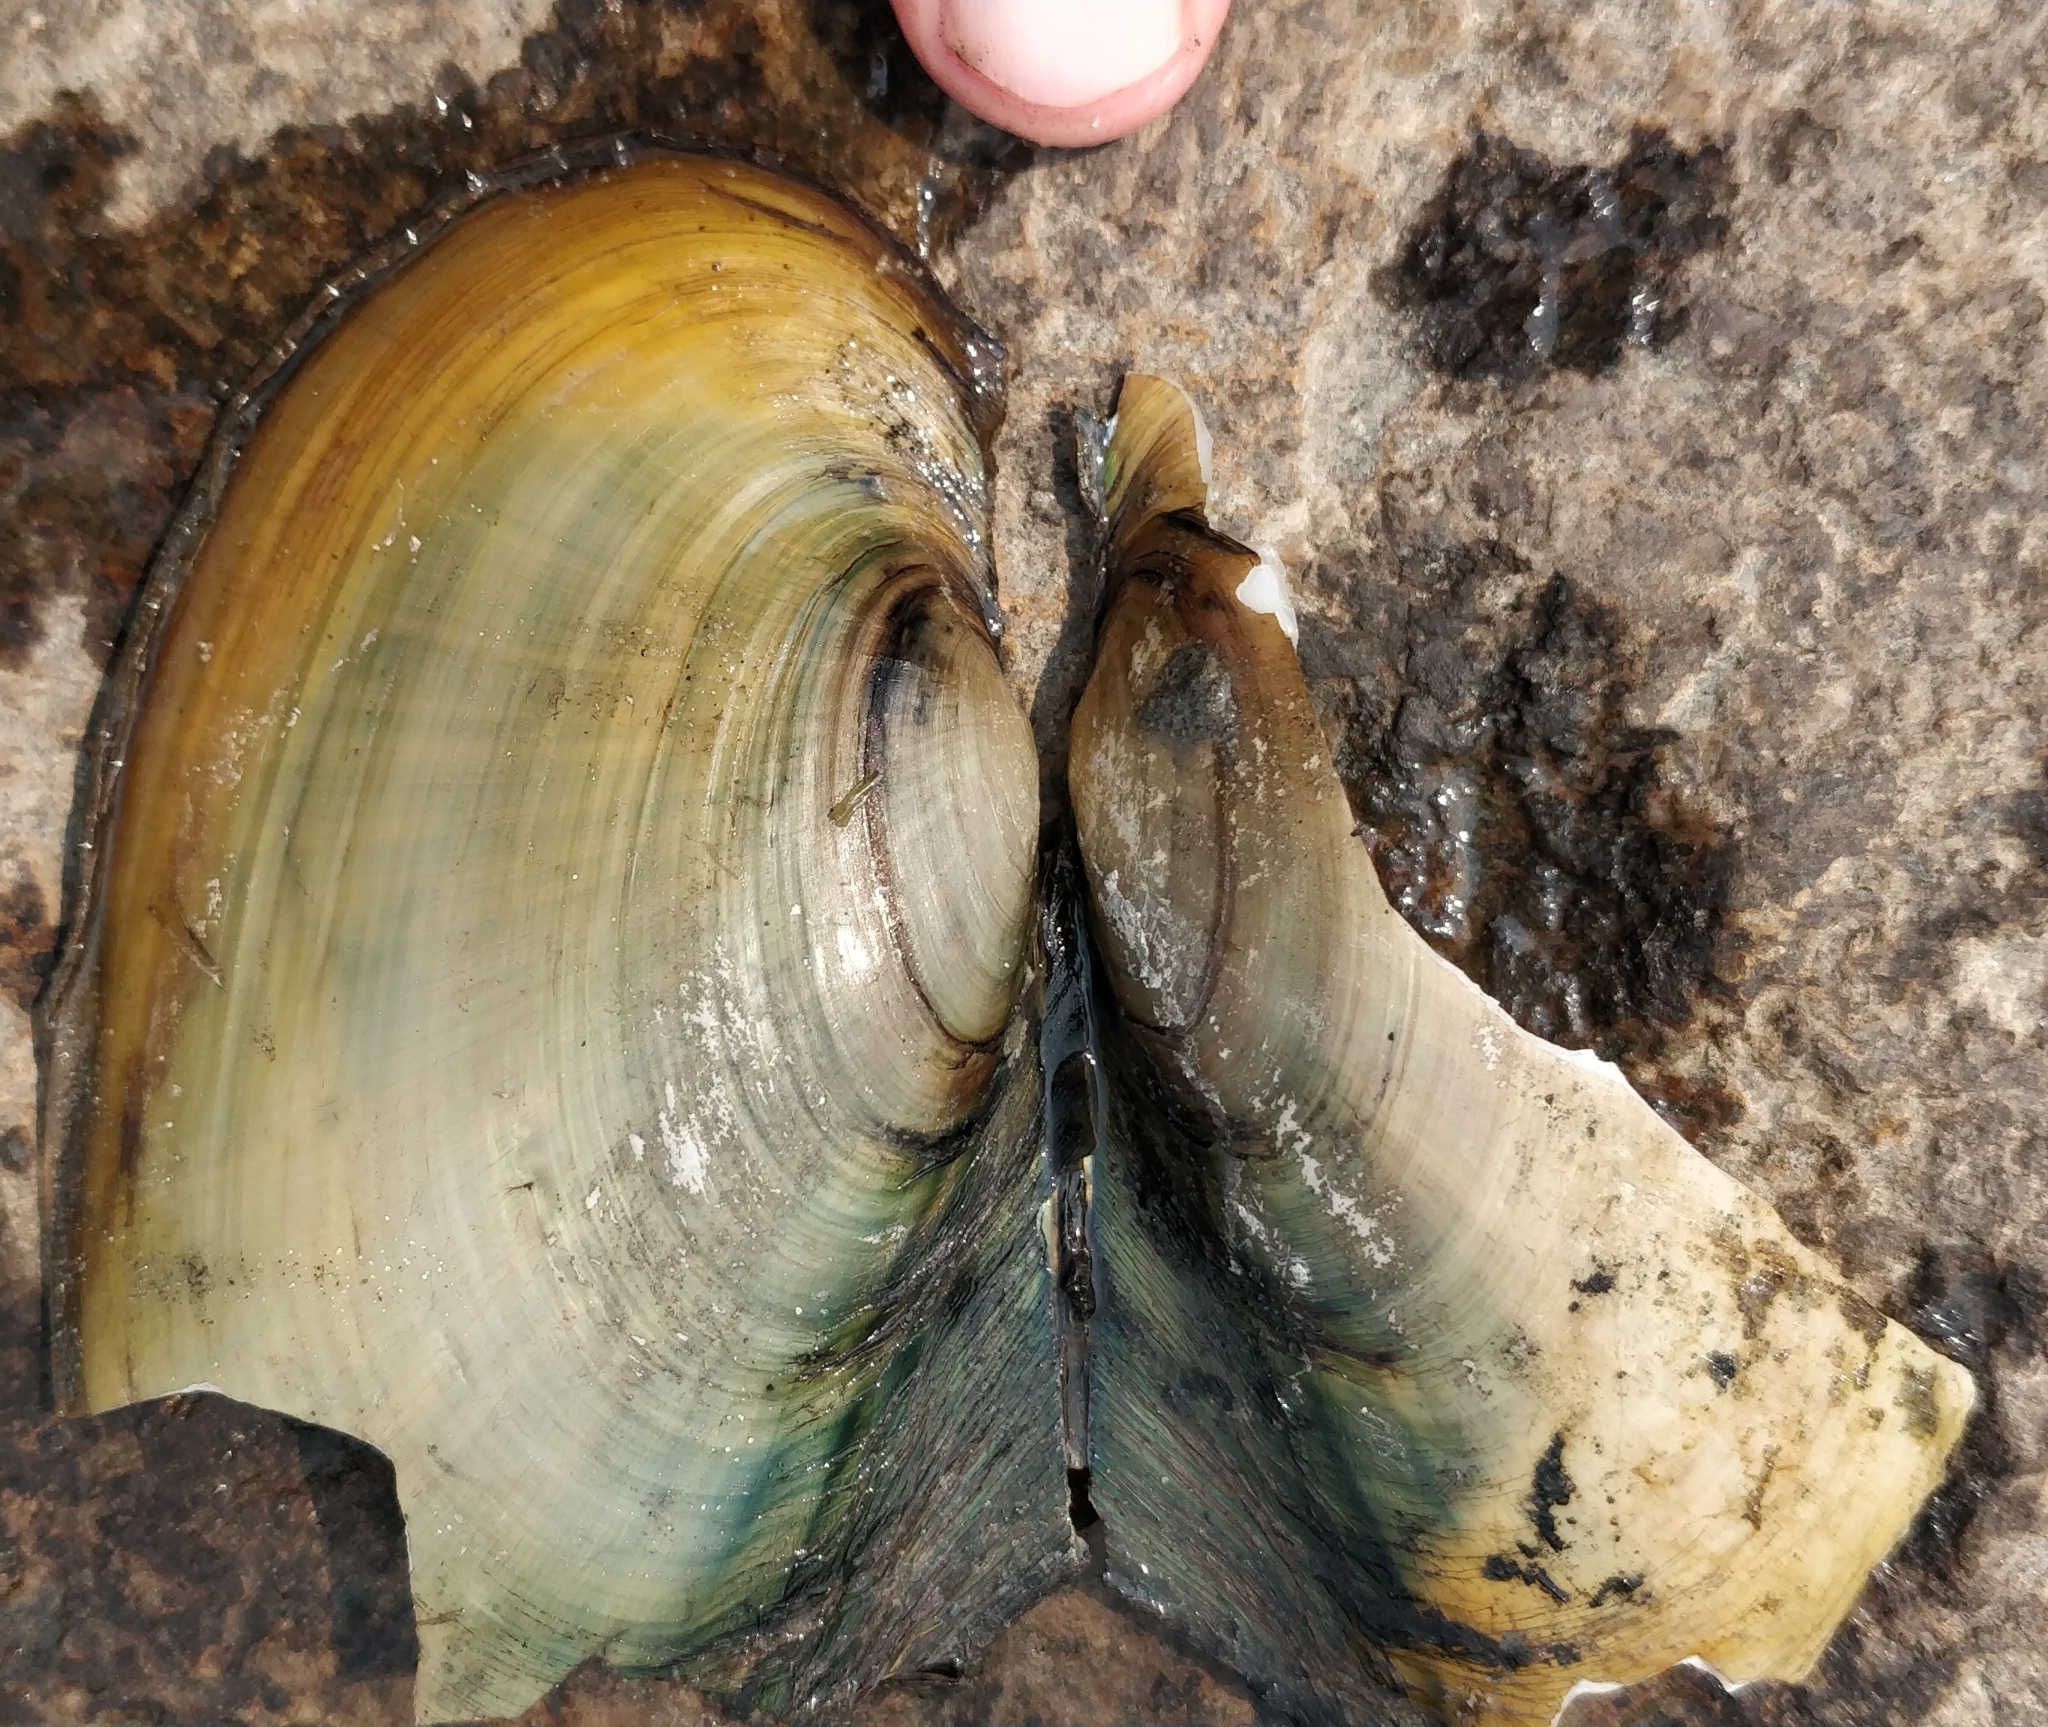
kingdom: Animalia
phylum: Mollusca
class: Bivalvia
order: Unionida
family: Unionidae
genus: Potamilus
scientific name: Potamilus fragilis
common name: Fragile papershell
